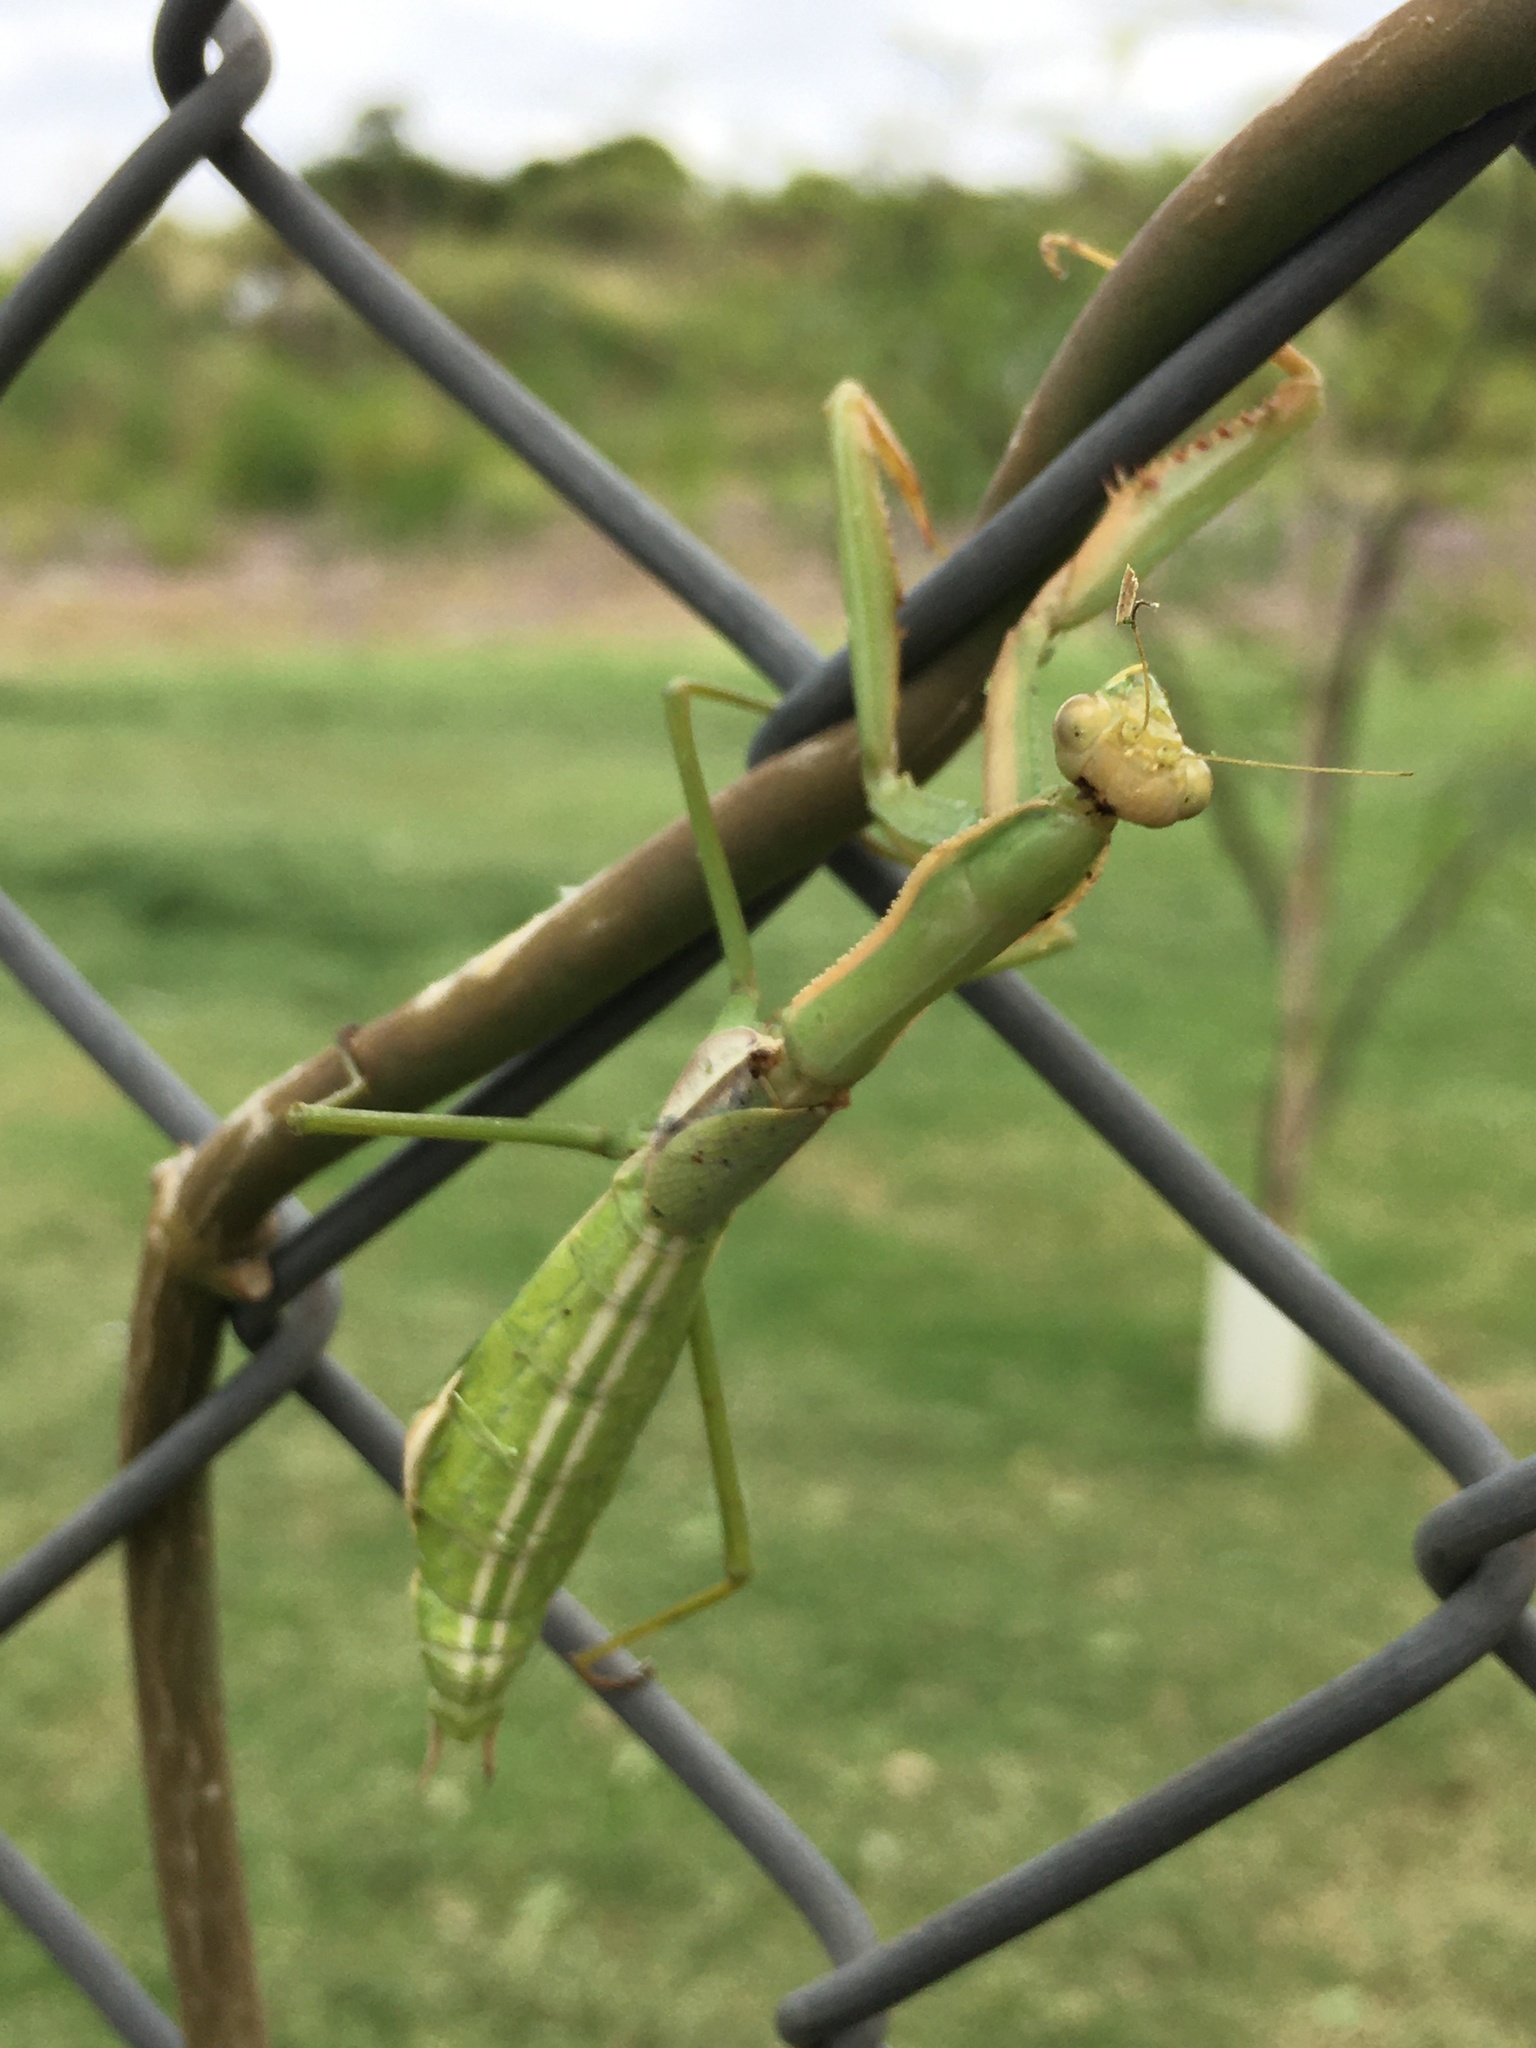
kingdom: Animalia
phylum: Arthropoda
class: Insecta
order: Mantodea
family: Coptopterygidae
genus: Coptopteryx
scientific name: Coptopteryx argentina
